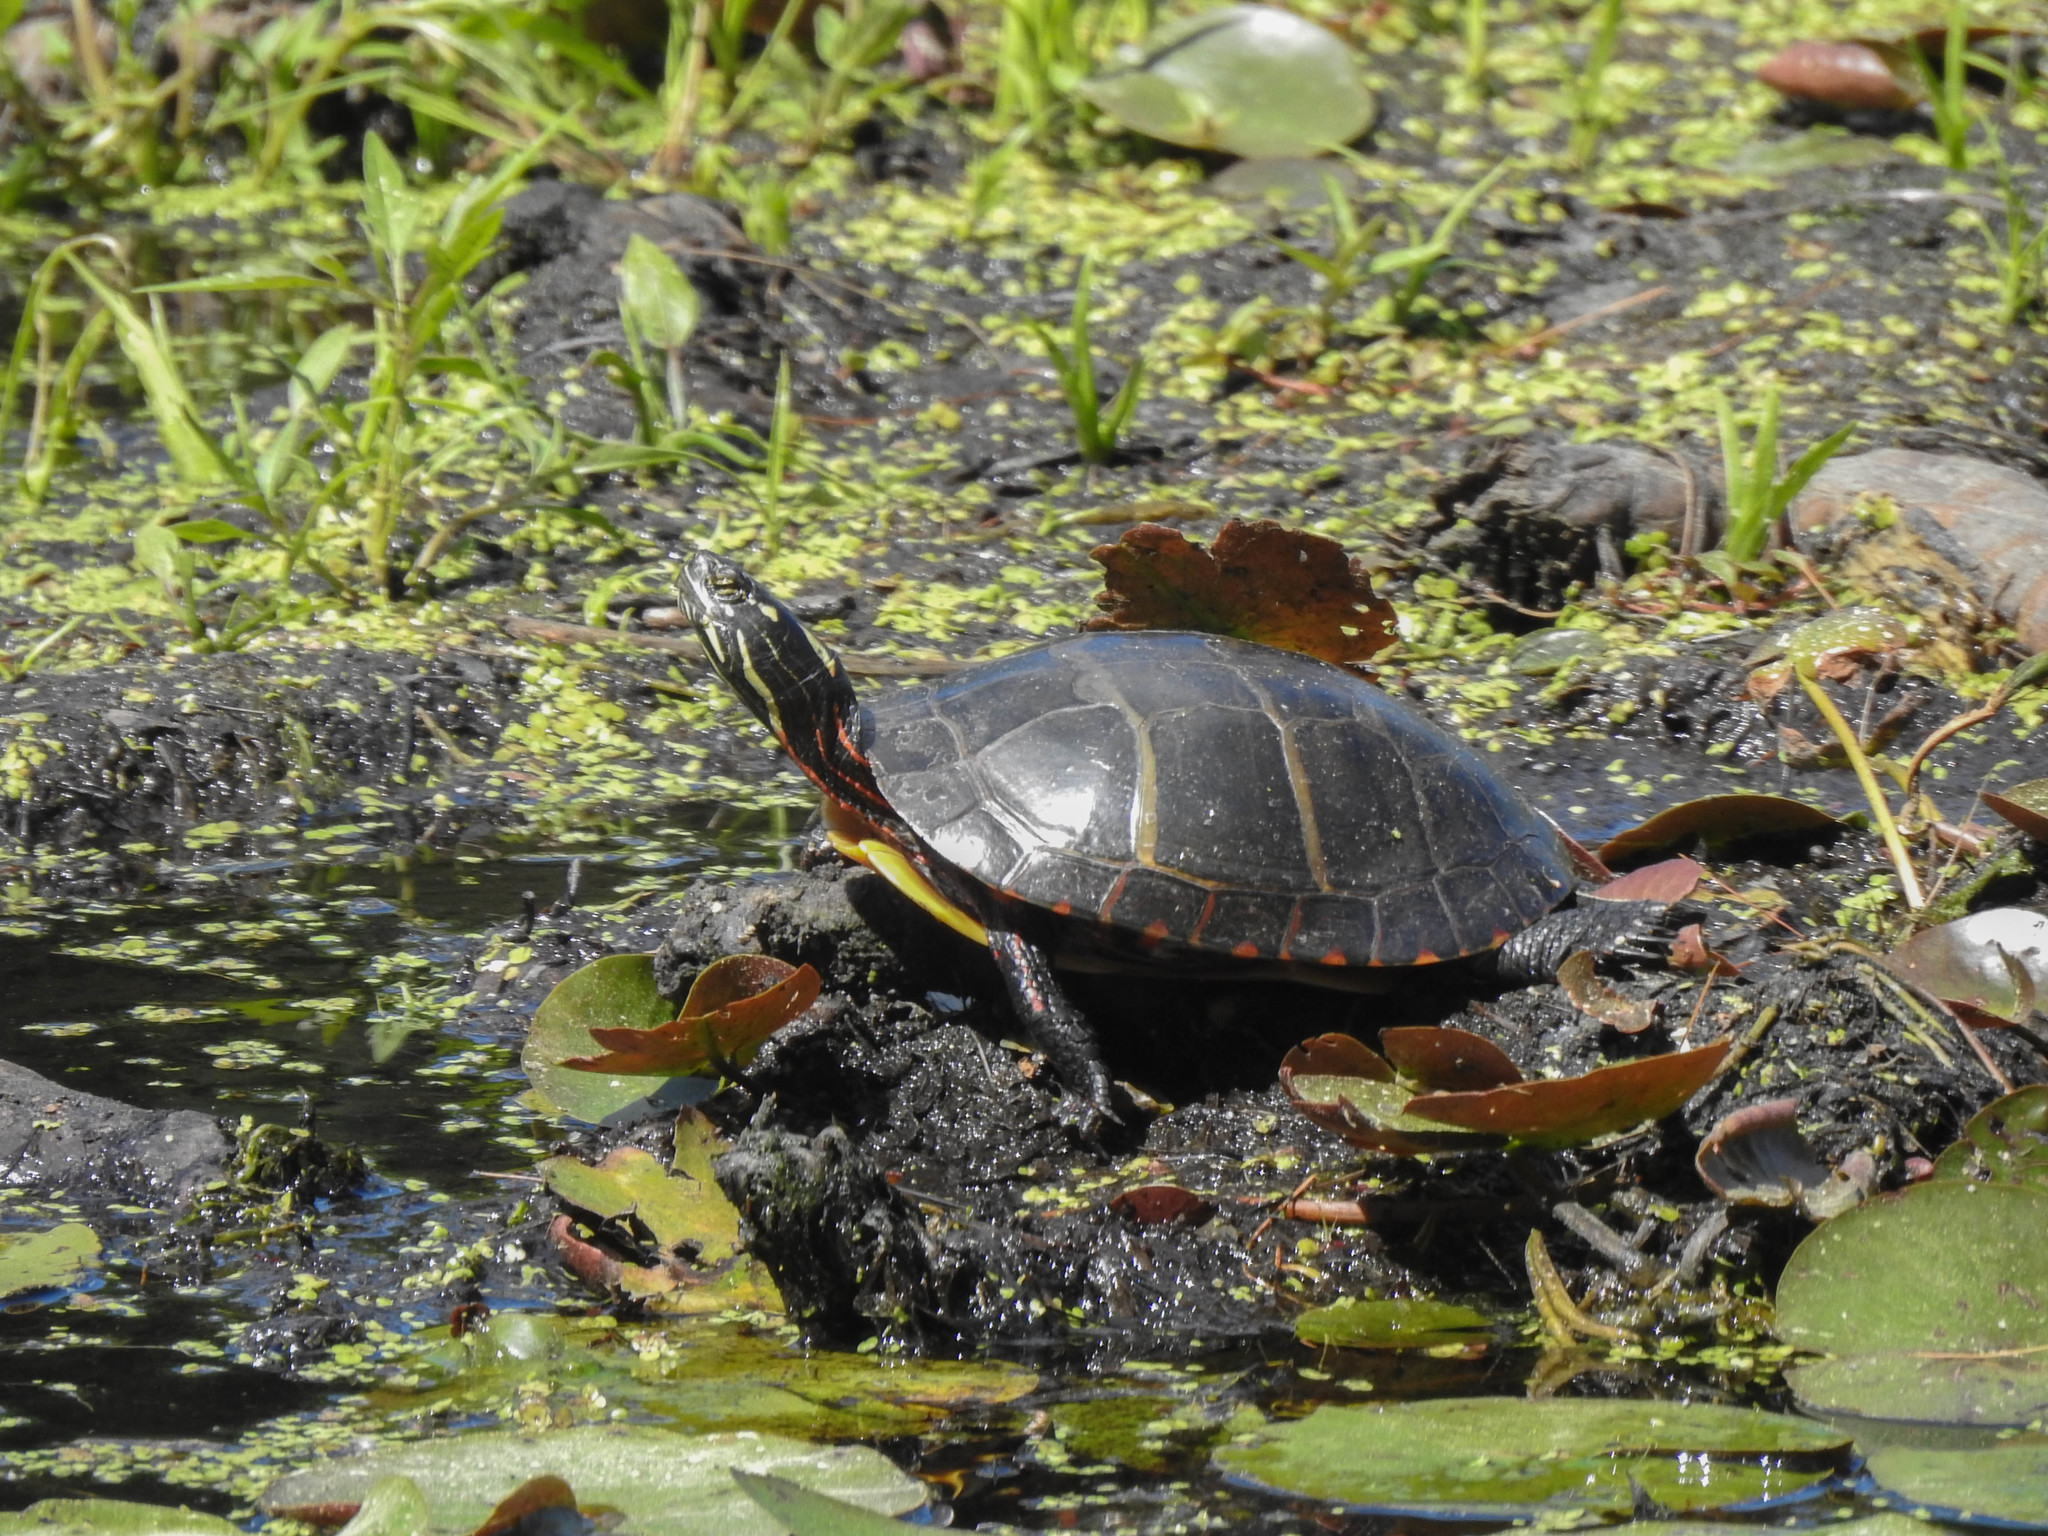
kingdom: Animalia
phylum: Chordata
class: Testudines
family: Emydidae
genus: Chrysemys
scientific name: Chrysemys picta
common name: Painted turtle
